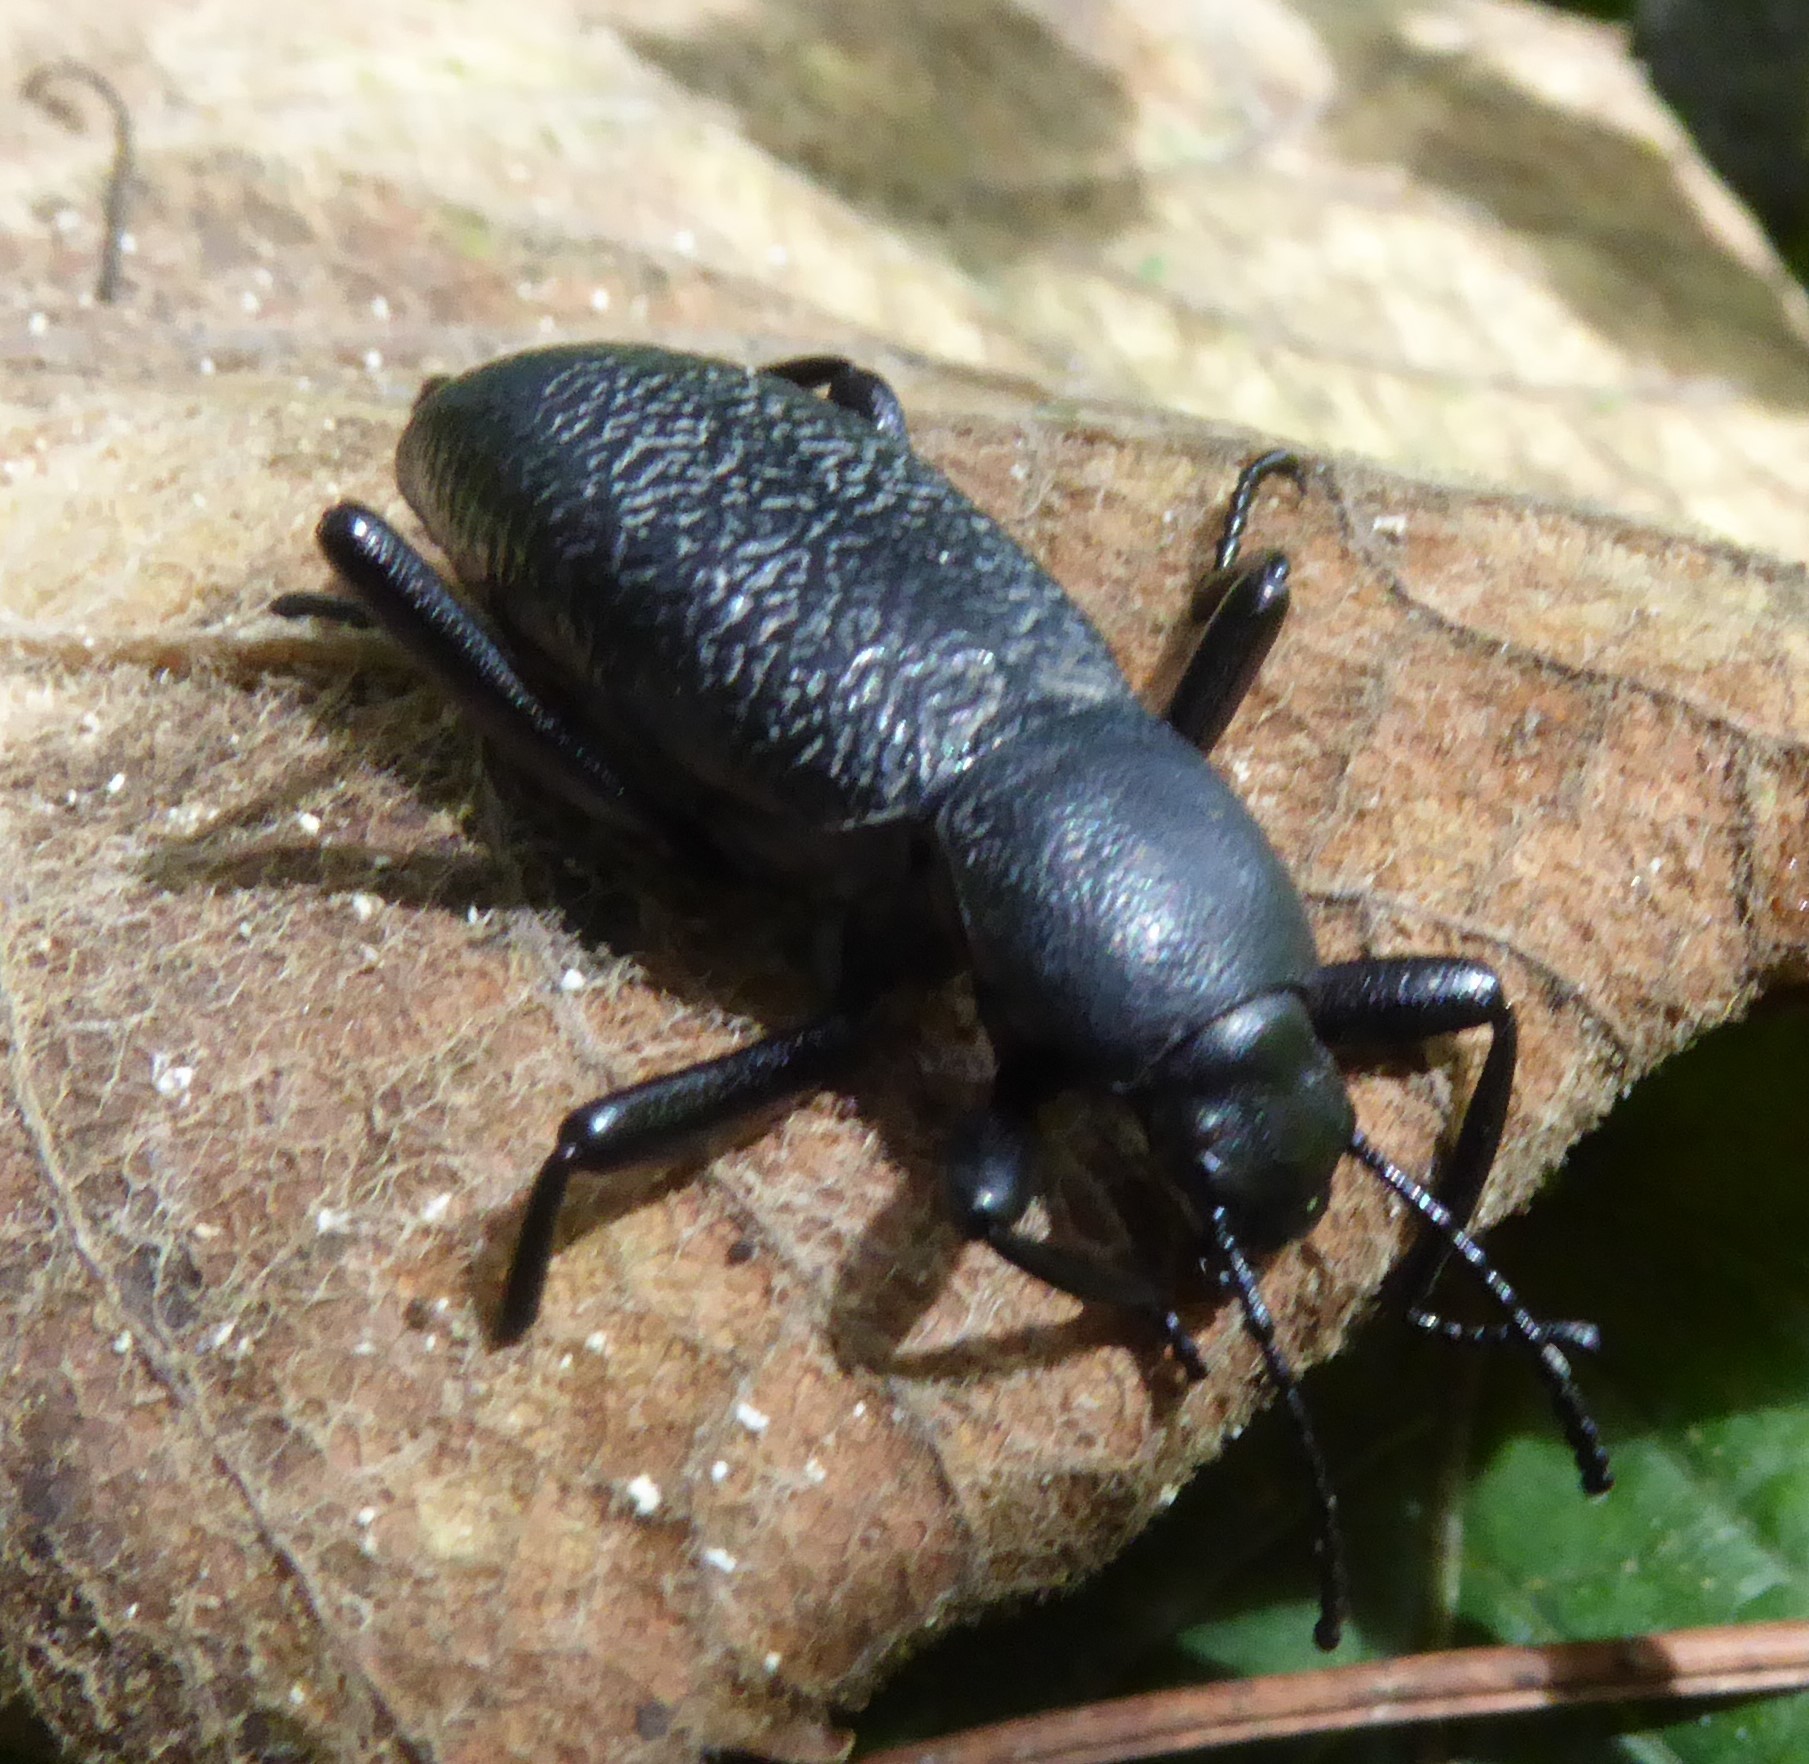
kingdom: Animalia
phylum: Arthropoda
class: Insecta
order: Coleoptera
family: Tenebrionidae
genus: Eleodes
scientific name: Eleodes ruida
